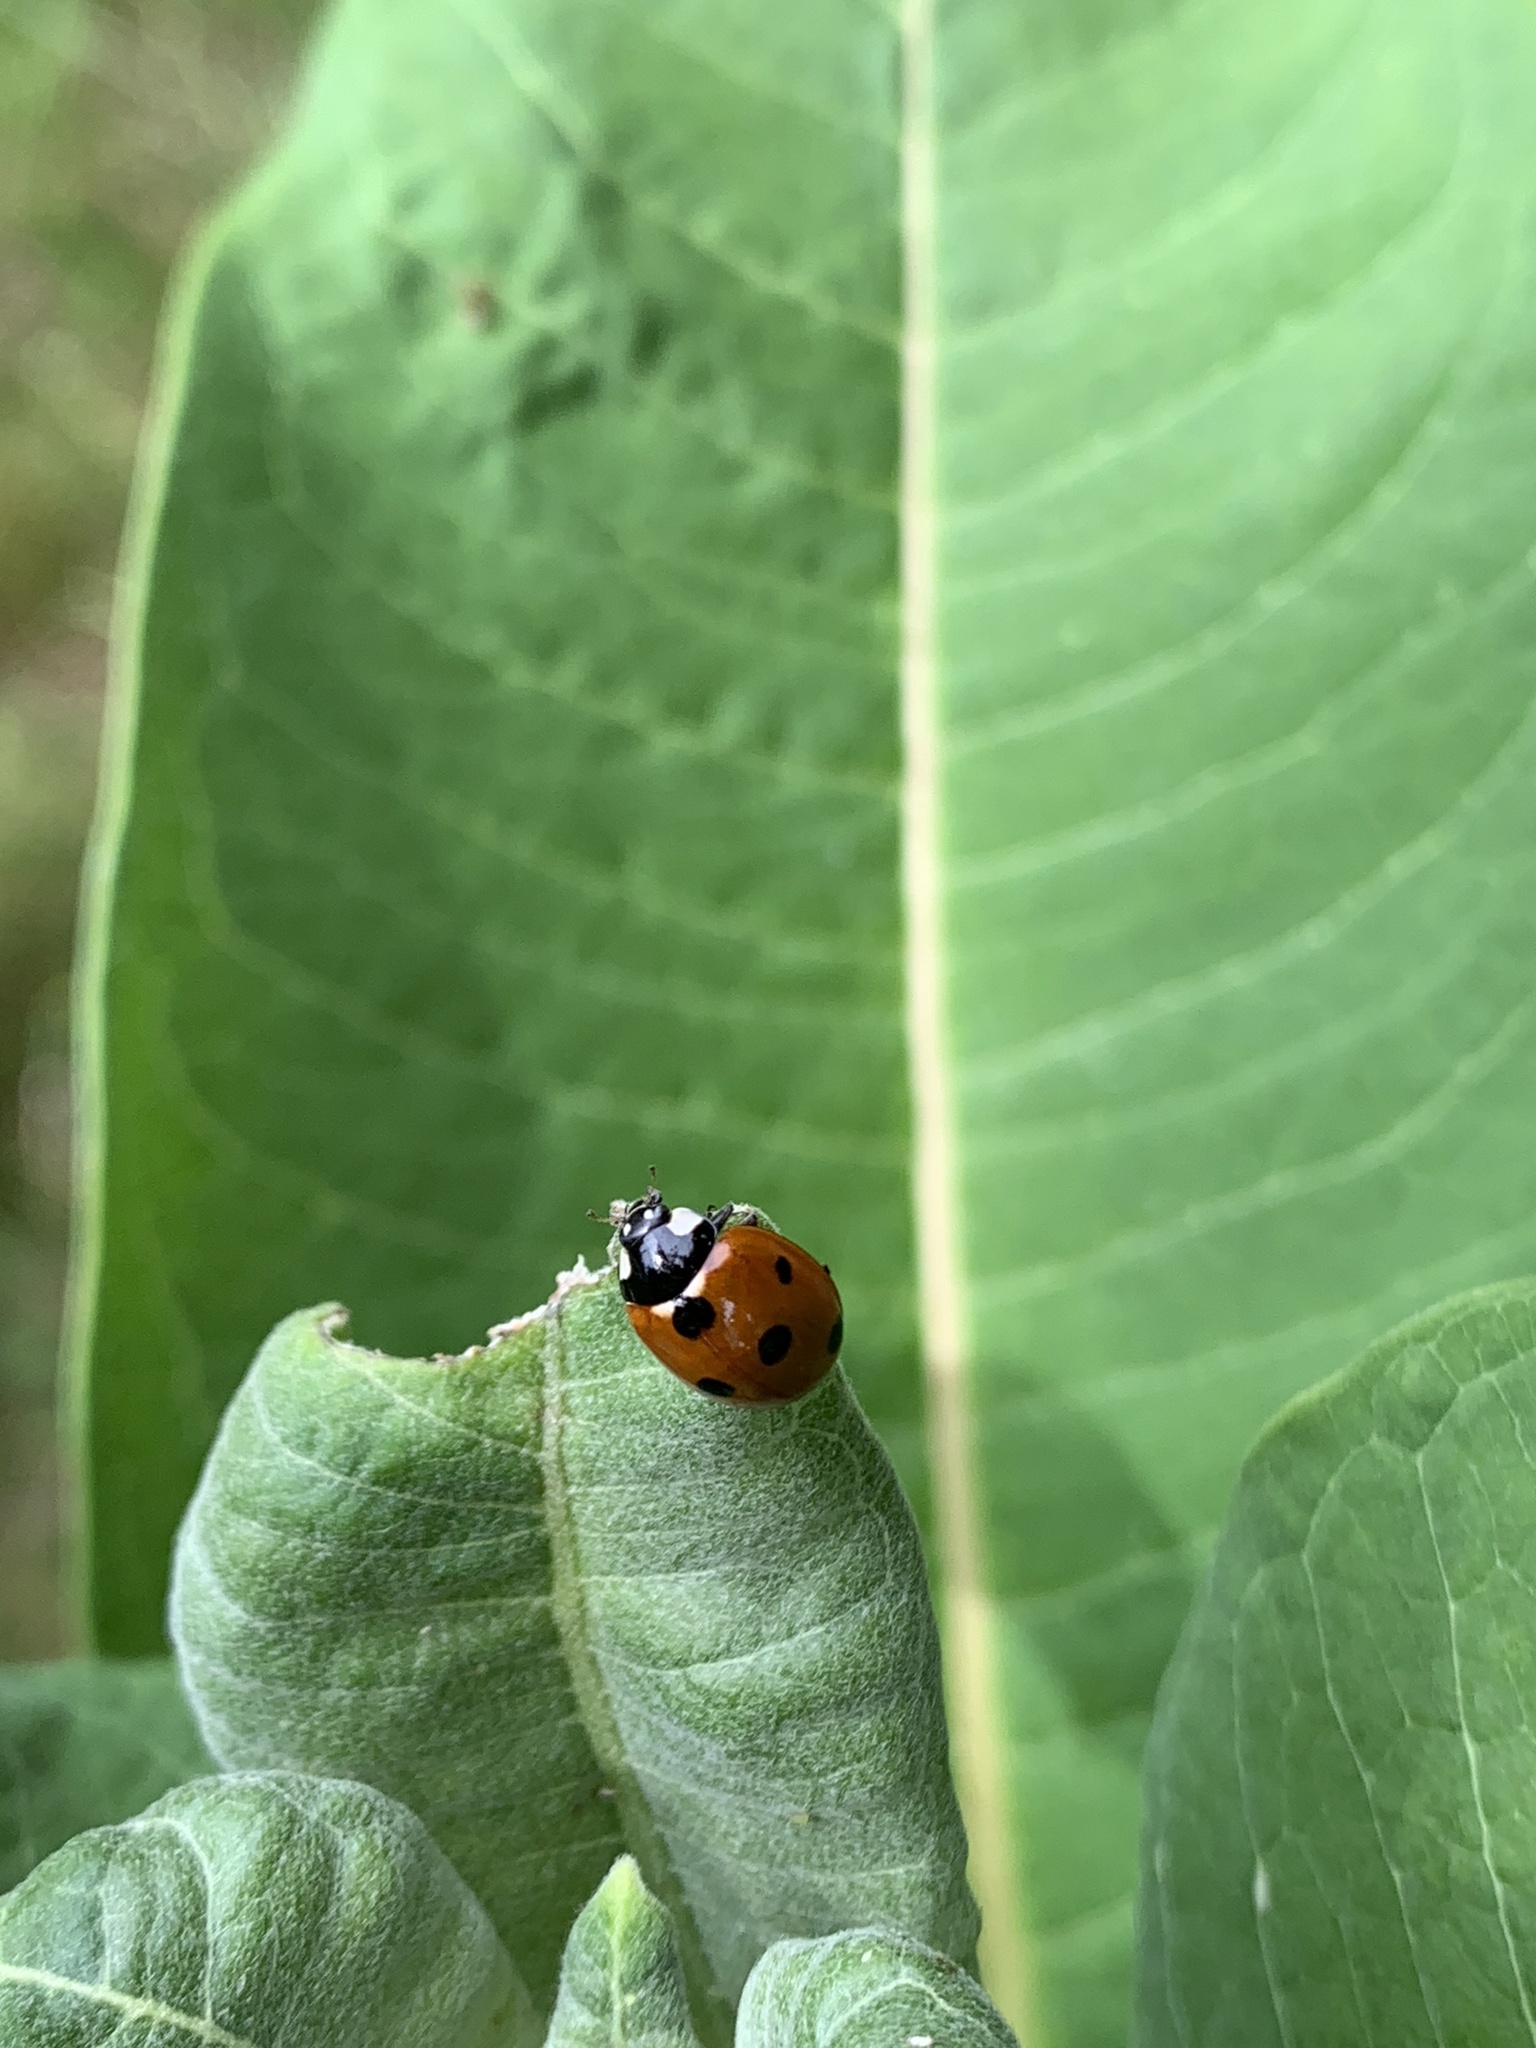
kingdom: Animalia
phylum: Arthropoda
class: Insecta
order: Coleoptera
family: Coccinellidae
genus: Coccinella
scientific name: Coccinella septempunctata
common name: Sevenspotted lady beetle
